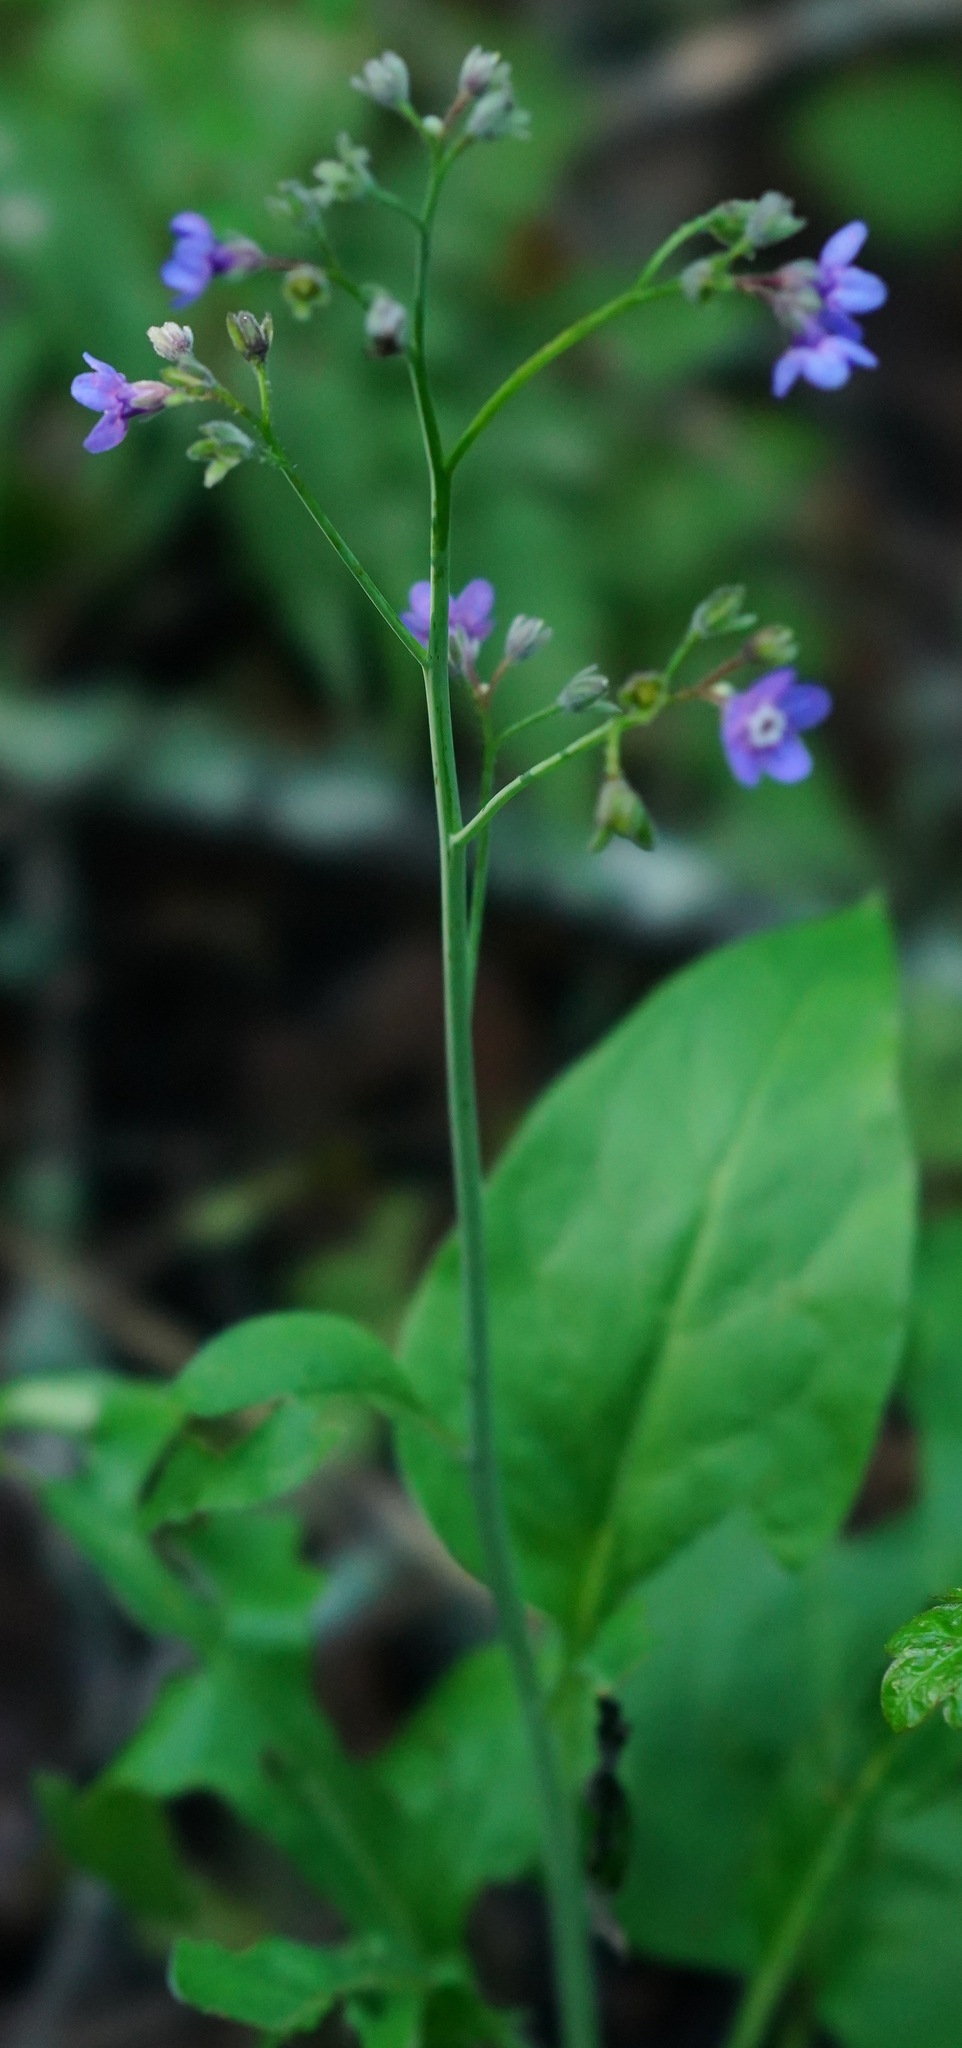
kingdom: Plantae
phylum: Tracheophyta
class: Magnoliopsida
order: Boraginales
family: Boraginaceae
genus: Adelinia
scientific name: Adelinia grande
